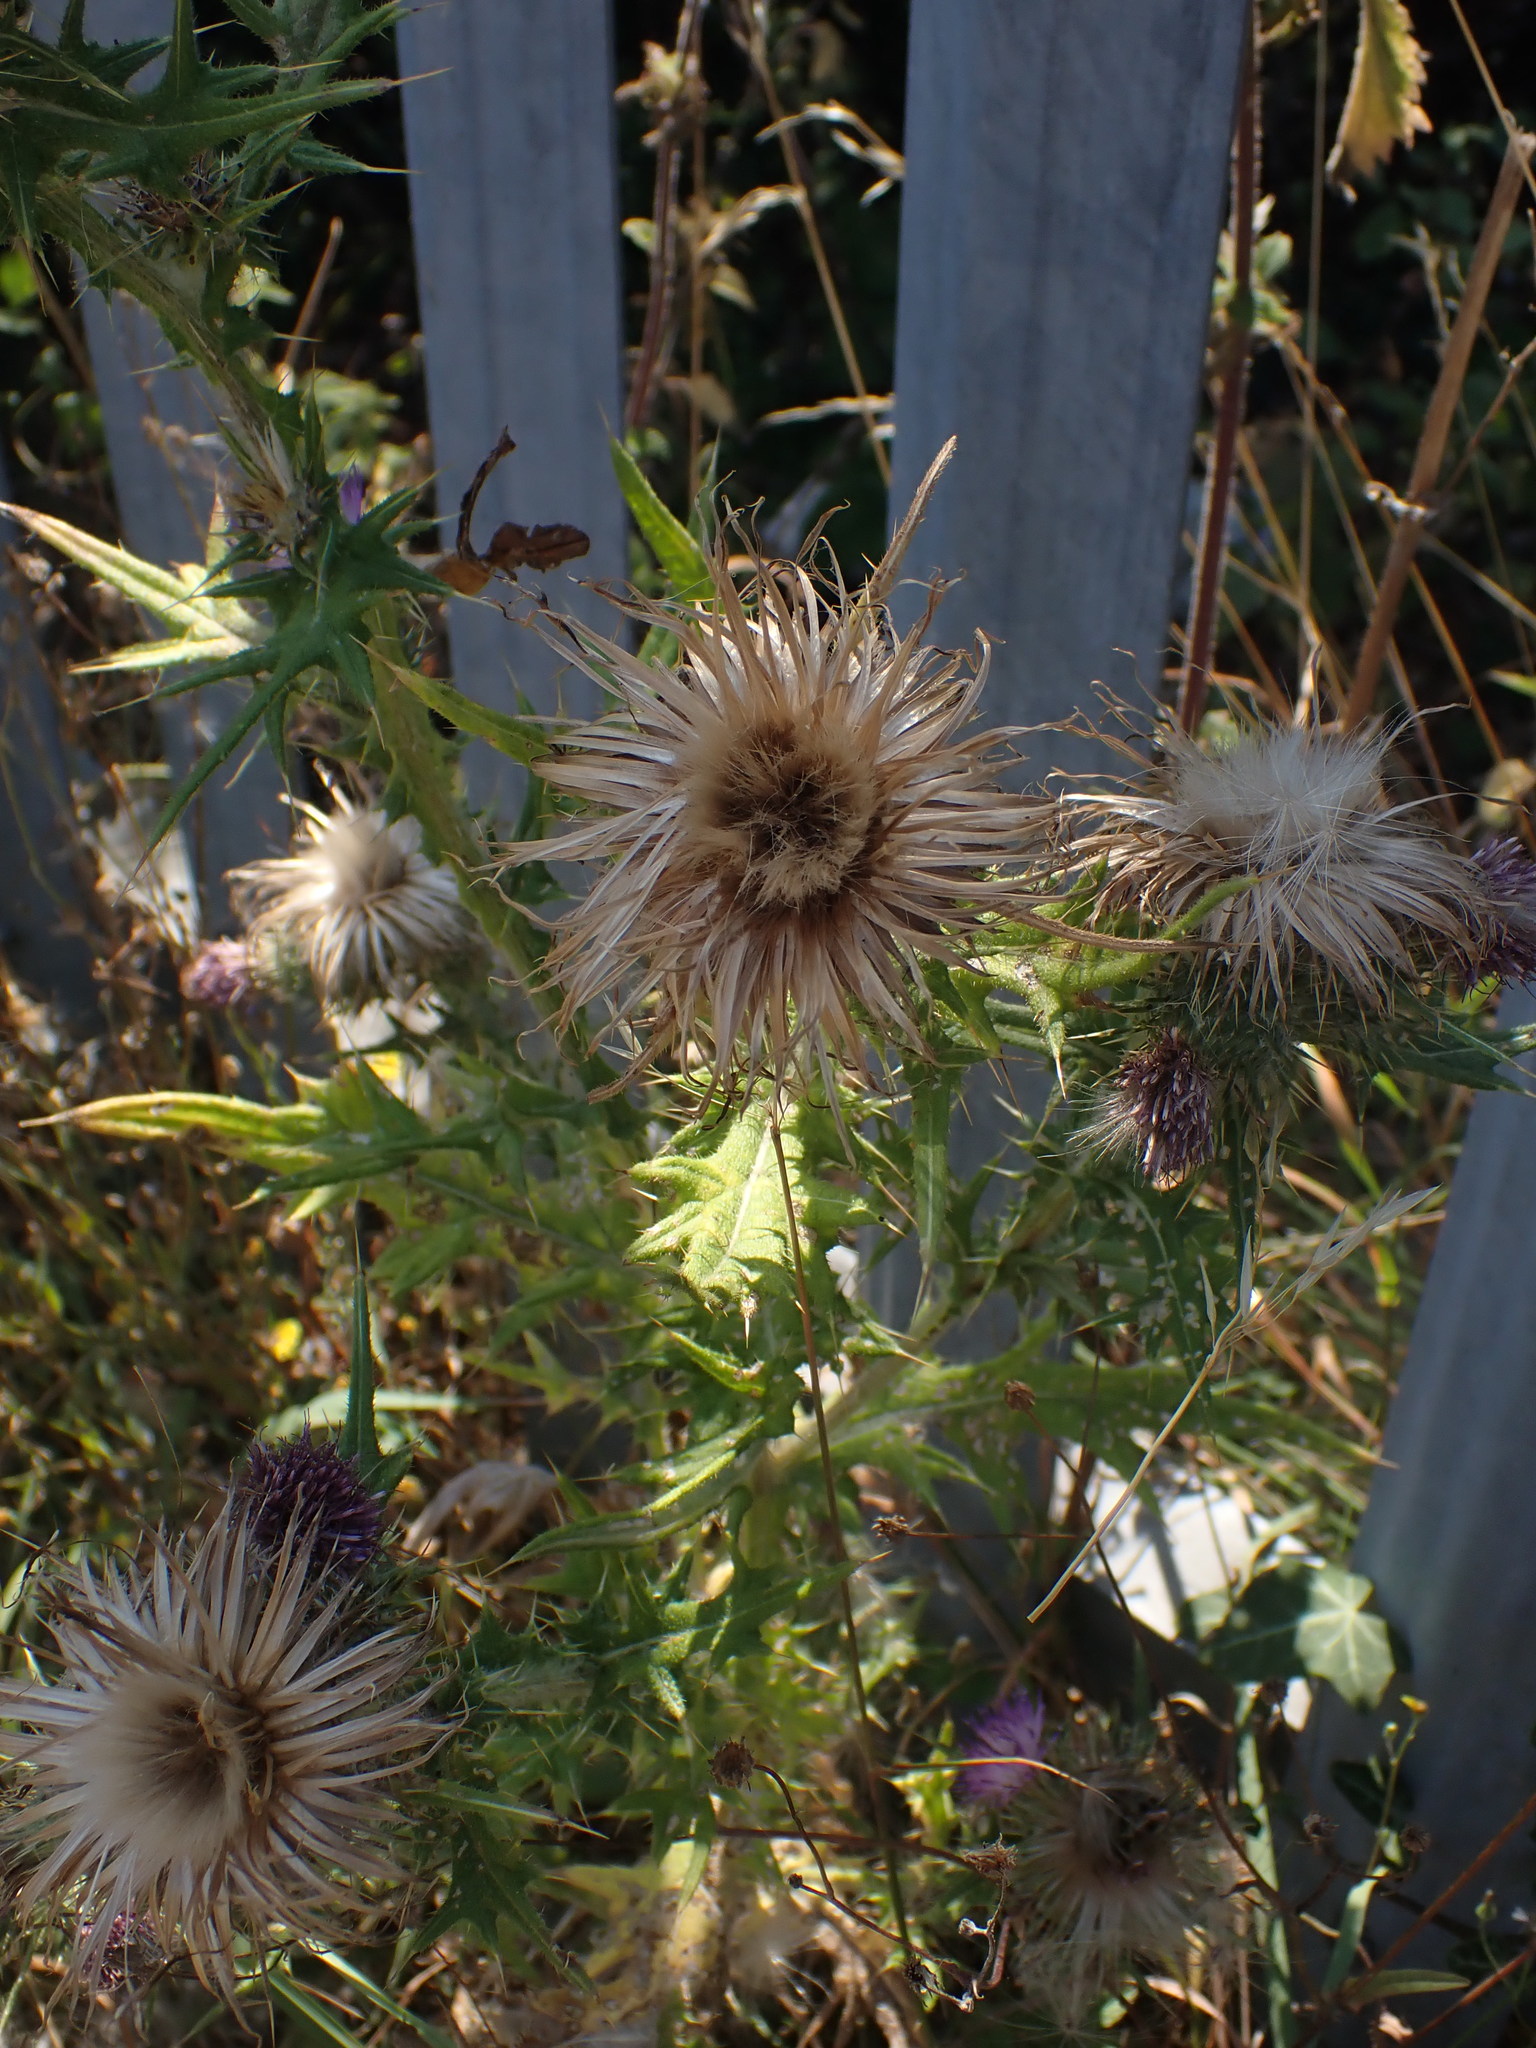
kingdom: Plantae
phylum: Tracheophyta
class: Magnoliopsida
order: Asterales
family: Asteraceae
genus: Cirsium
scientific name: Cirsium vulgare
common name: Bull thistle
